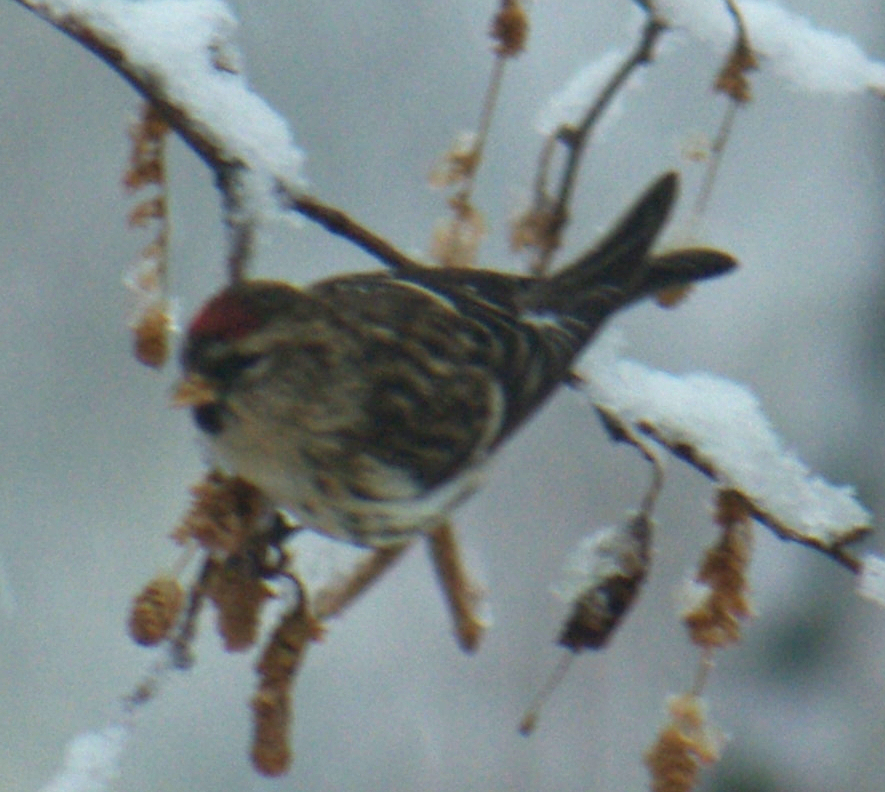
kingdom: Animalia
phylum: Chordata
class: Aves
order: Passeriformes
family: Fringillidae
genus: Acanthis
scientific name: Acanthis flammea
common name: Common redpoll
